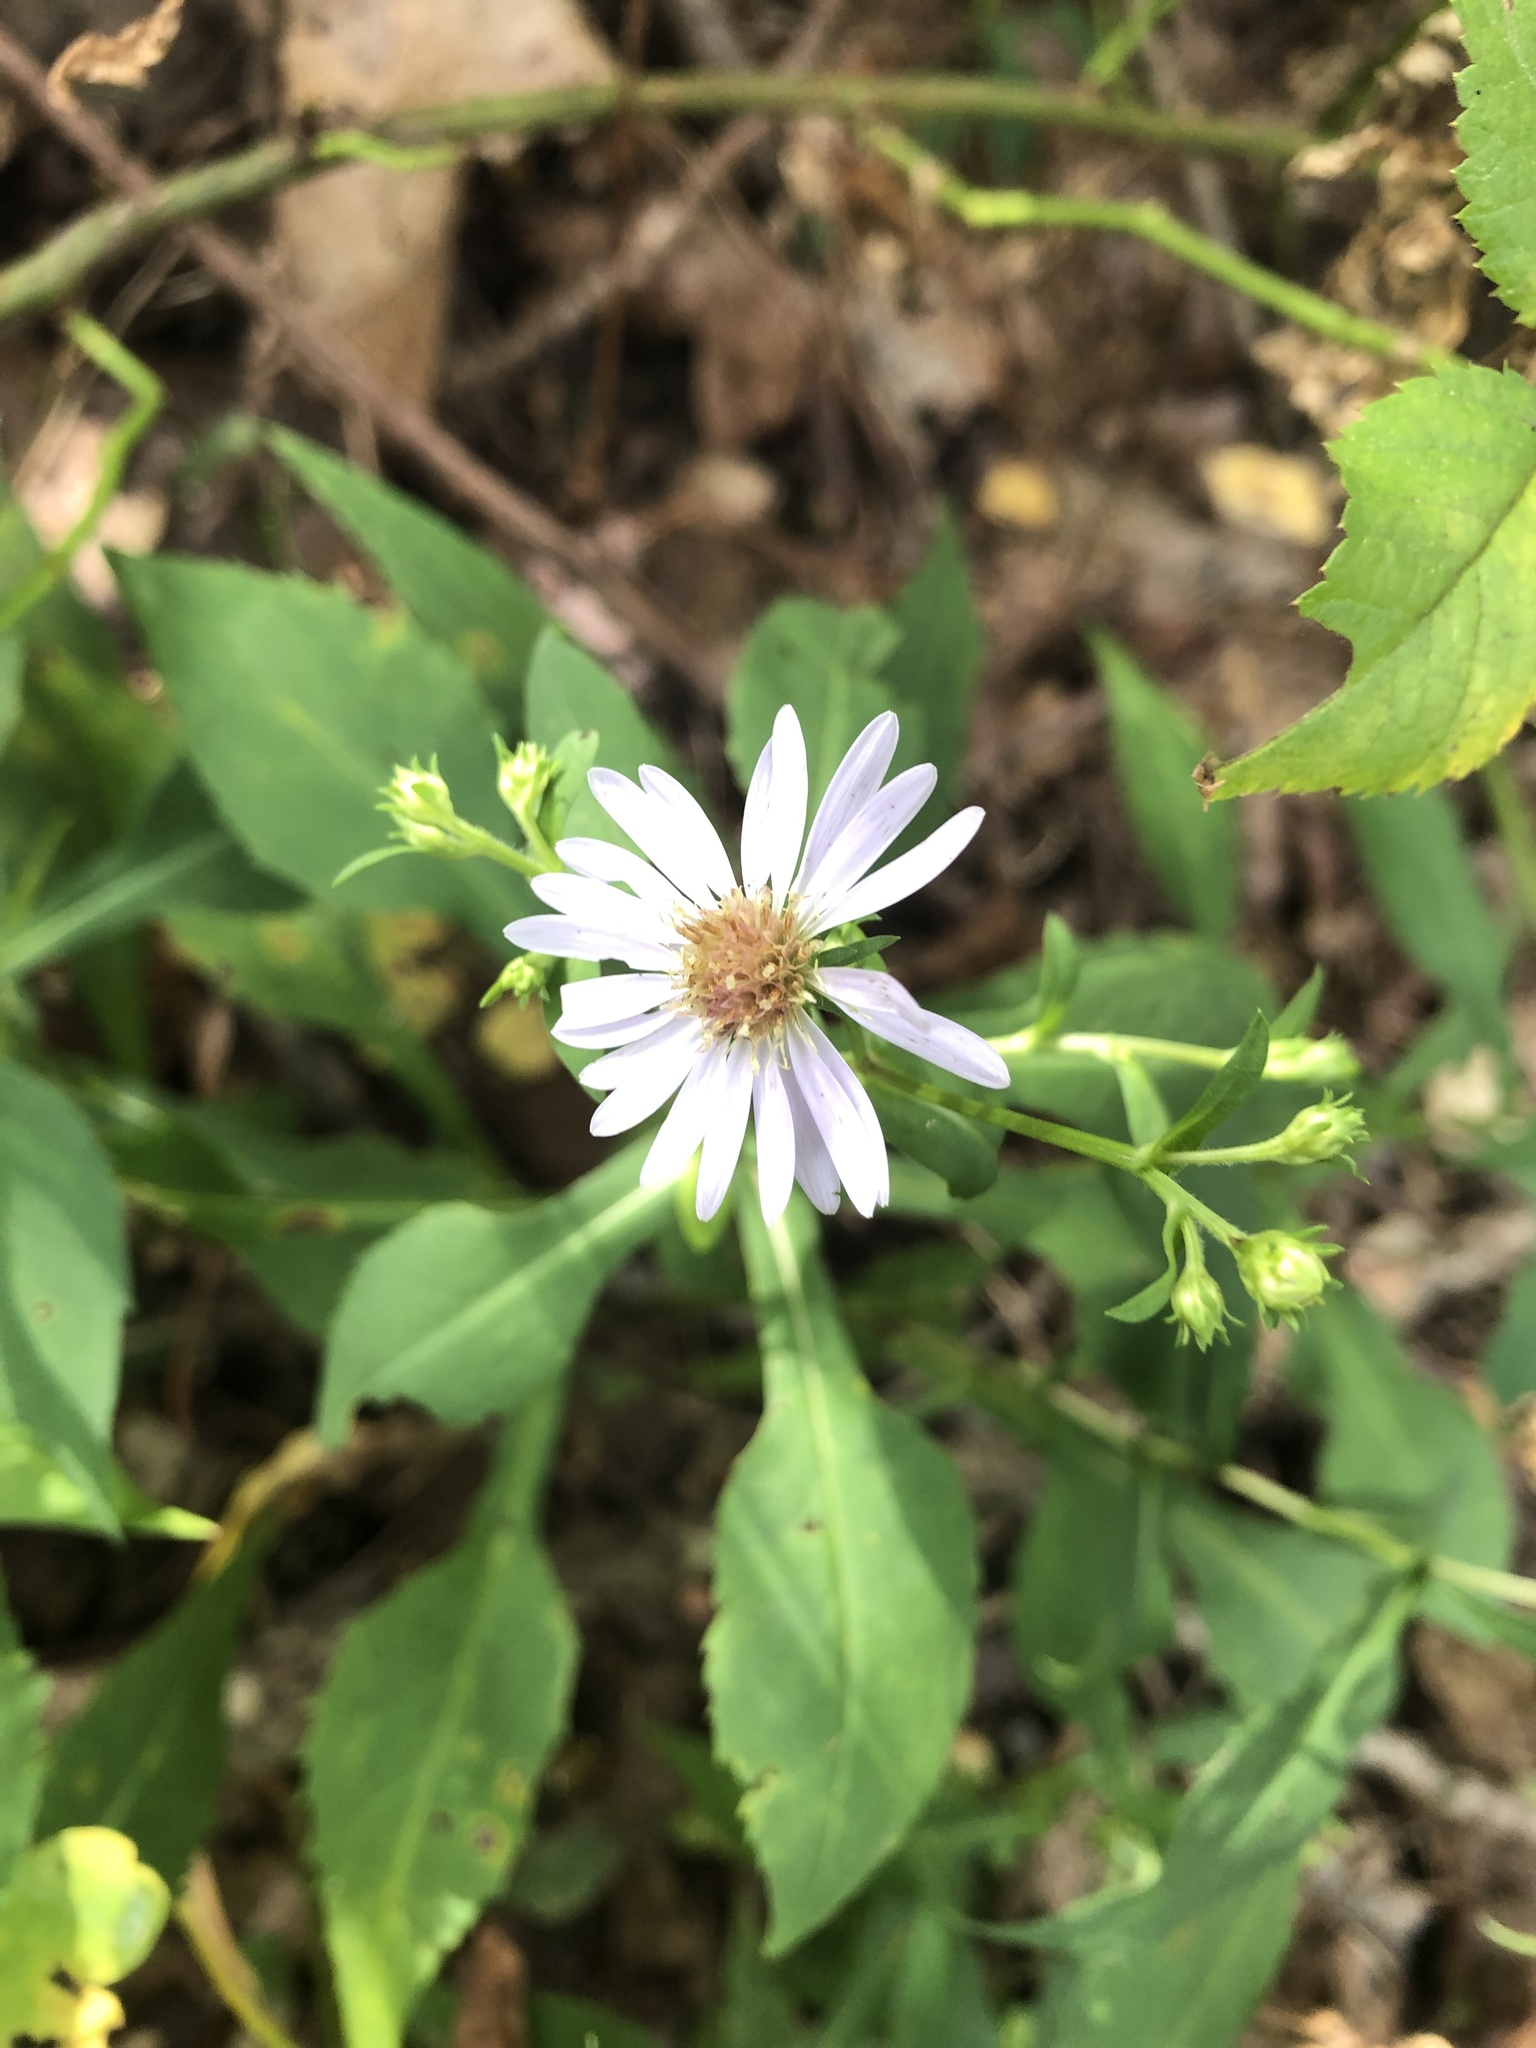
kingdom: Plantae
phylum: Tracheophyta
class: Magnoliopsida
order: Asterales
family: Asteraceae
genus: Symphyotrichum
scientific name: Symphyotrichum prenanthoides
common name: Crooked-stem aster
